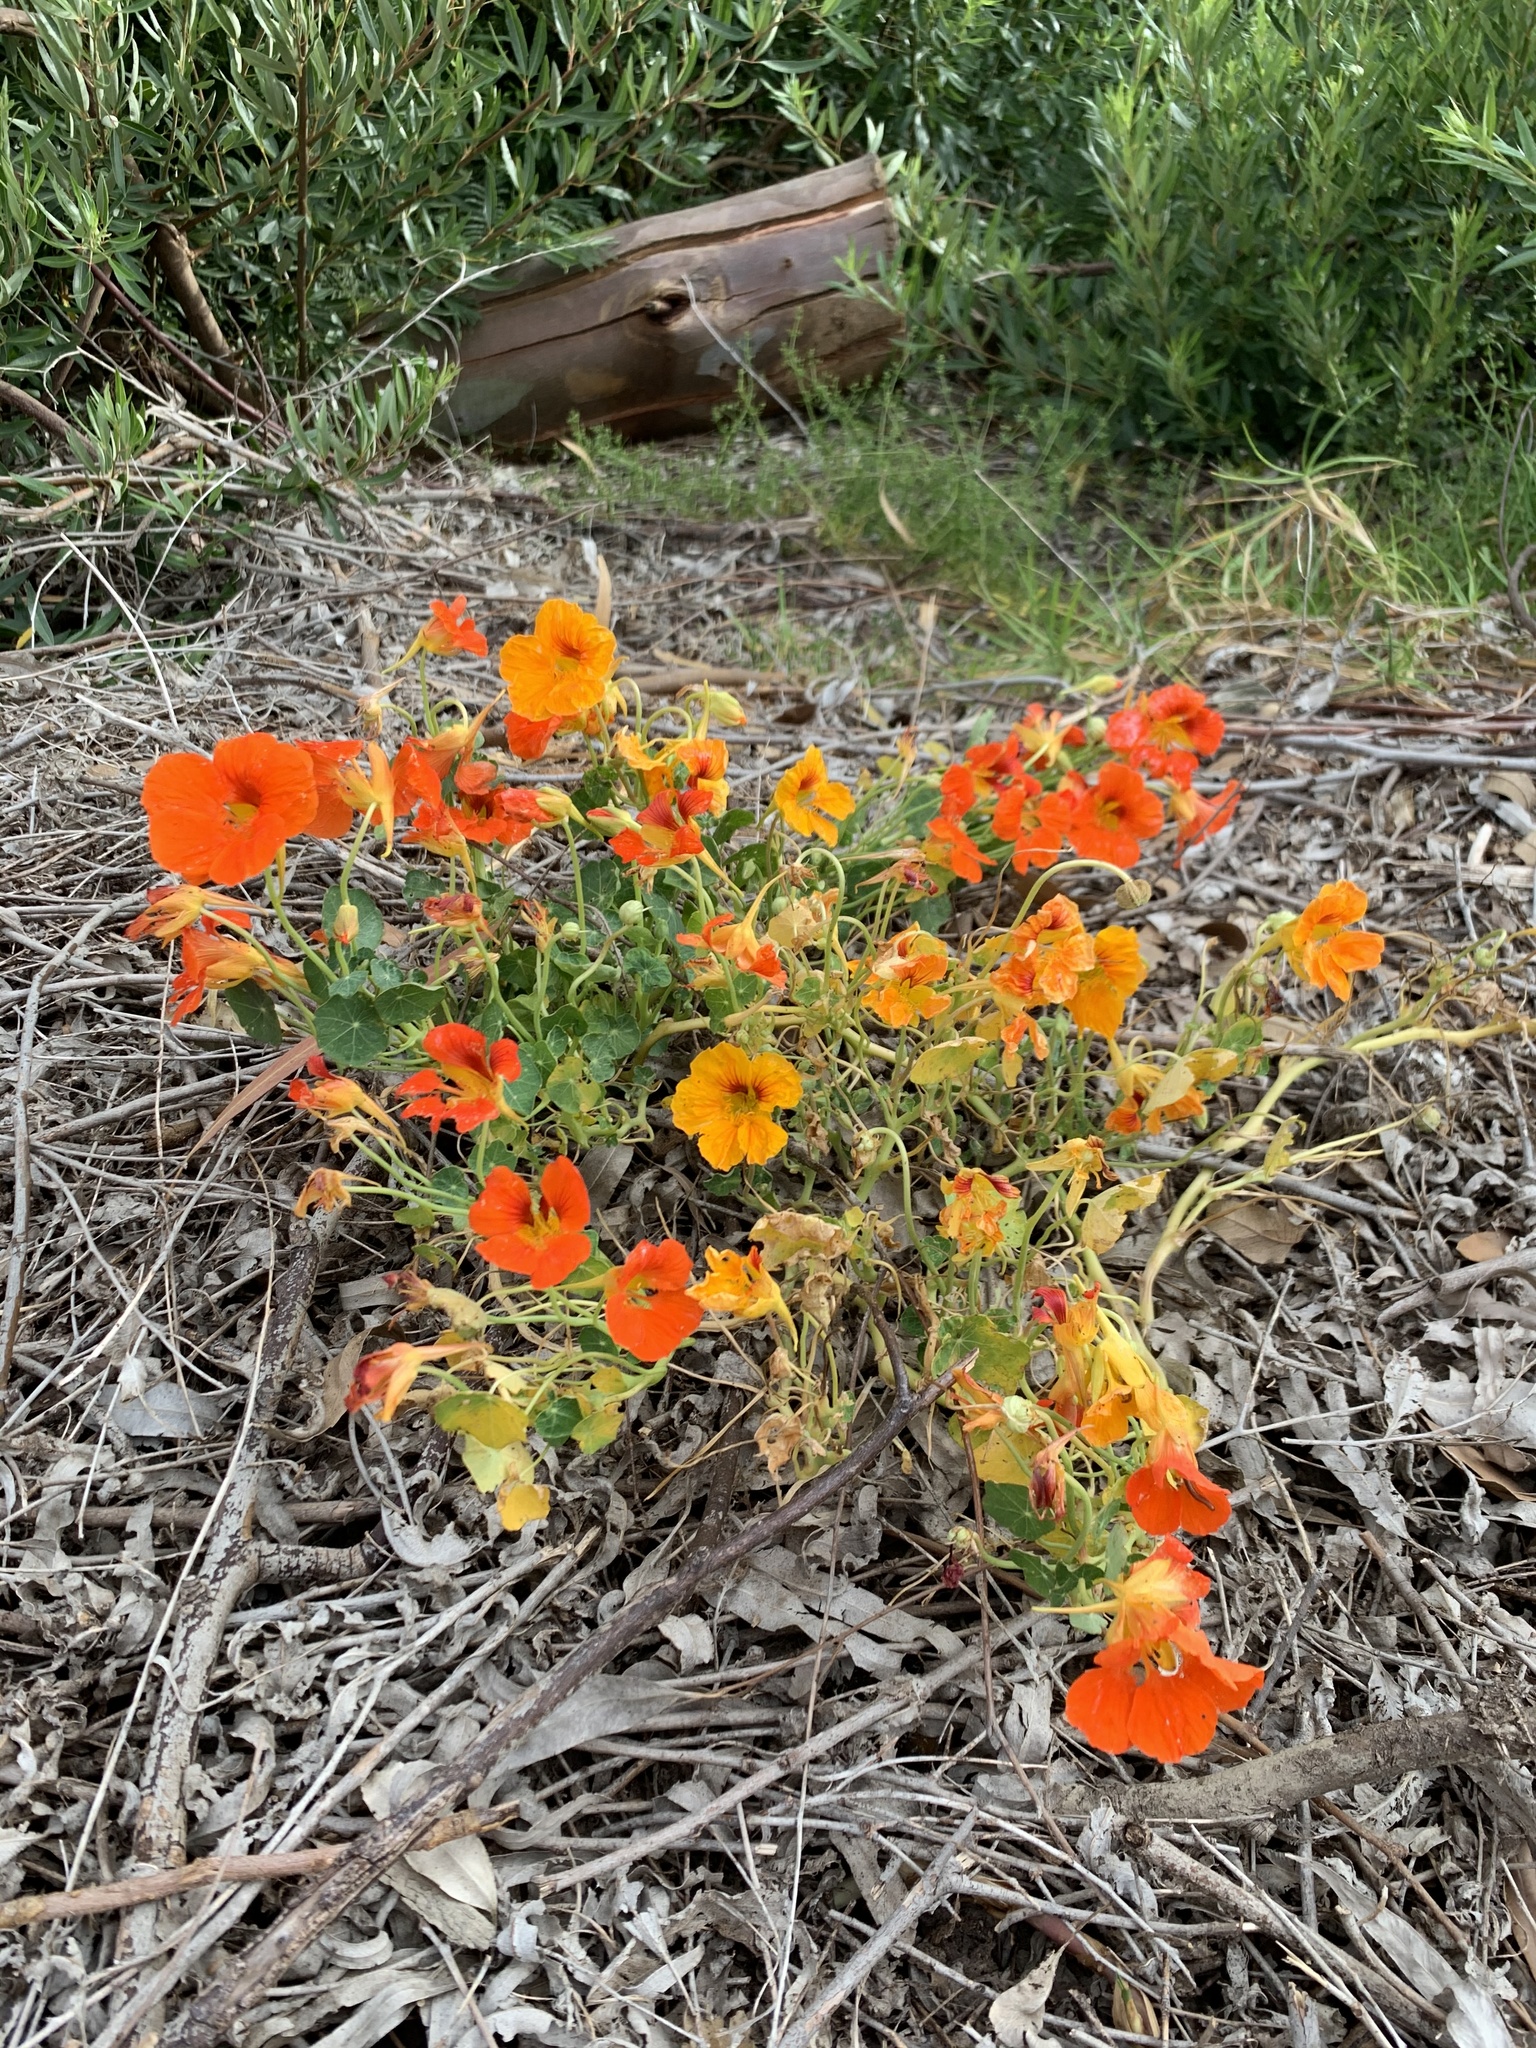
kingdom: Plantae
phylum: Tracheophyta
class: Magnoliopsida
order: Brassicales
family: Tropaeolaceae
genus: Tropaeolum
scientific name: Tropaeolum majus
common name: Nasturtium
